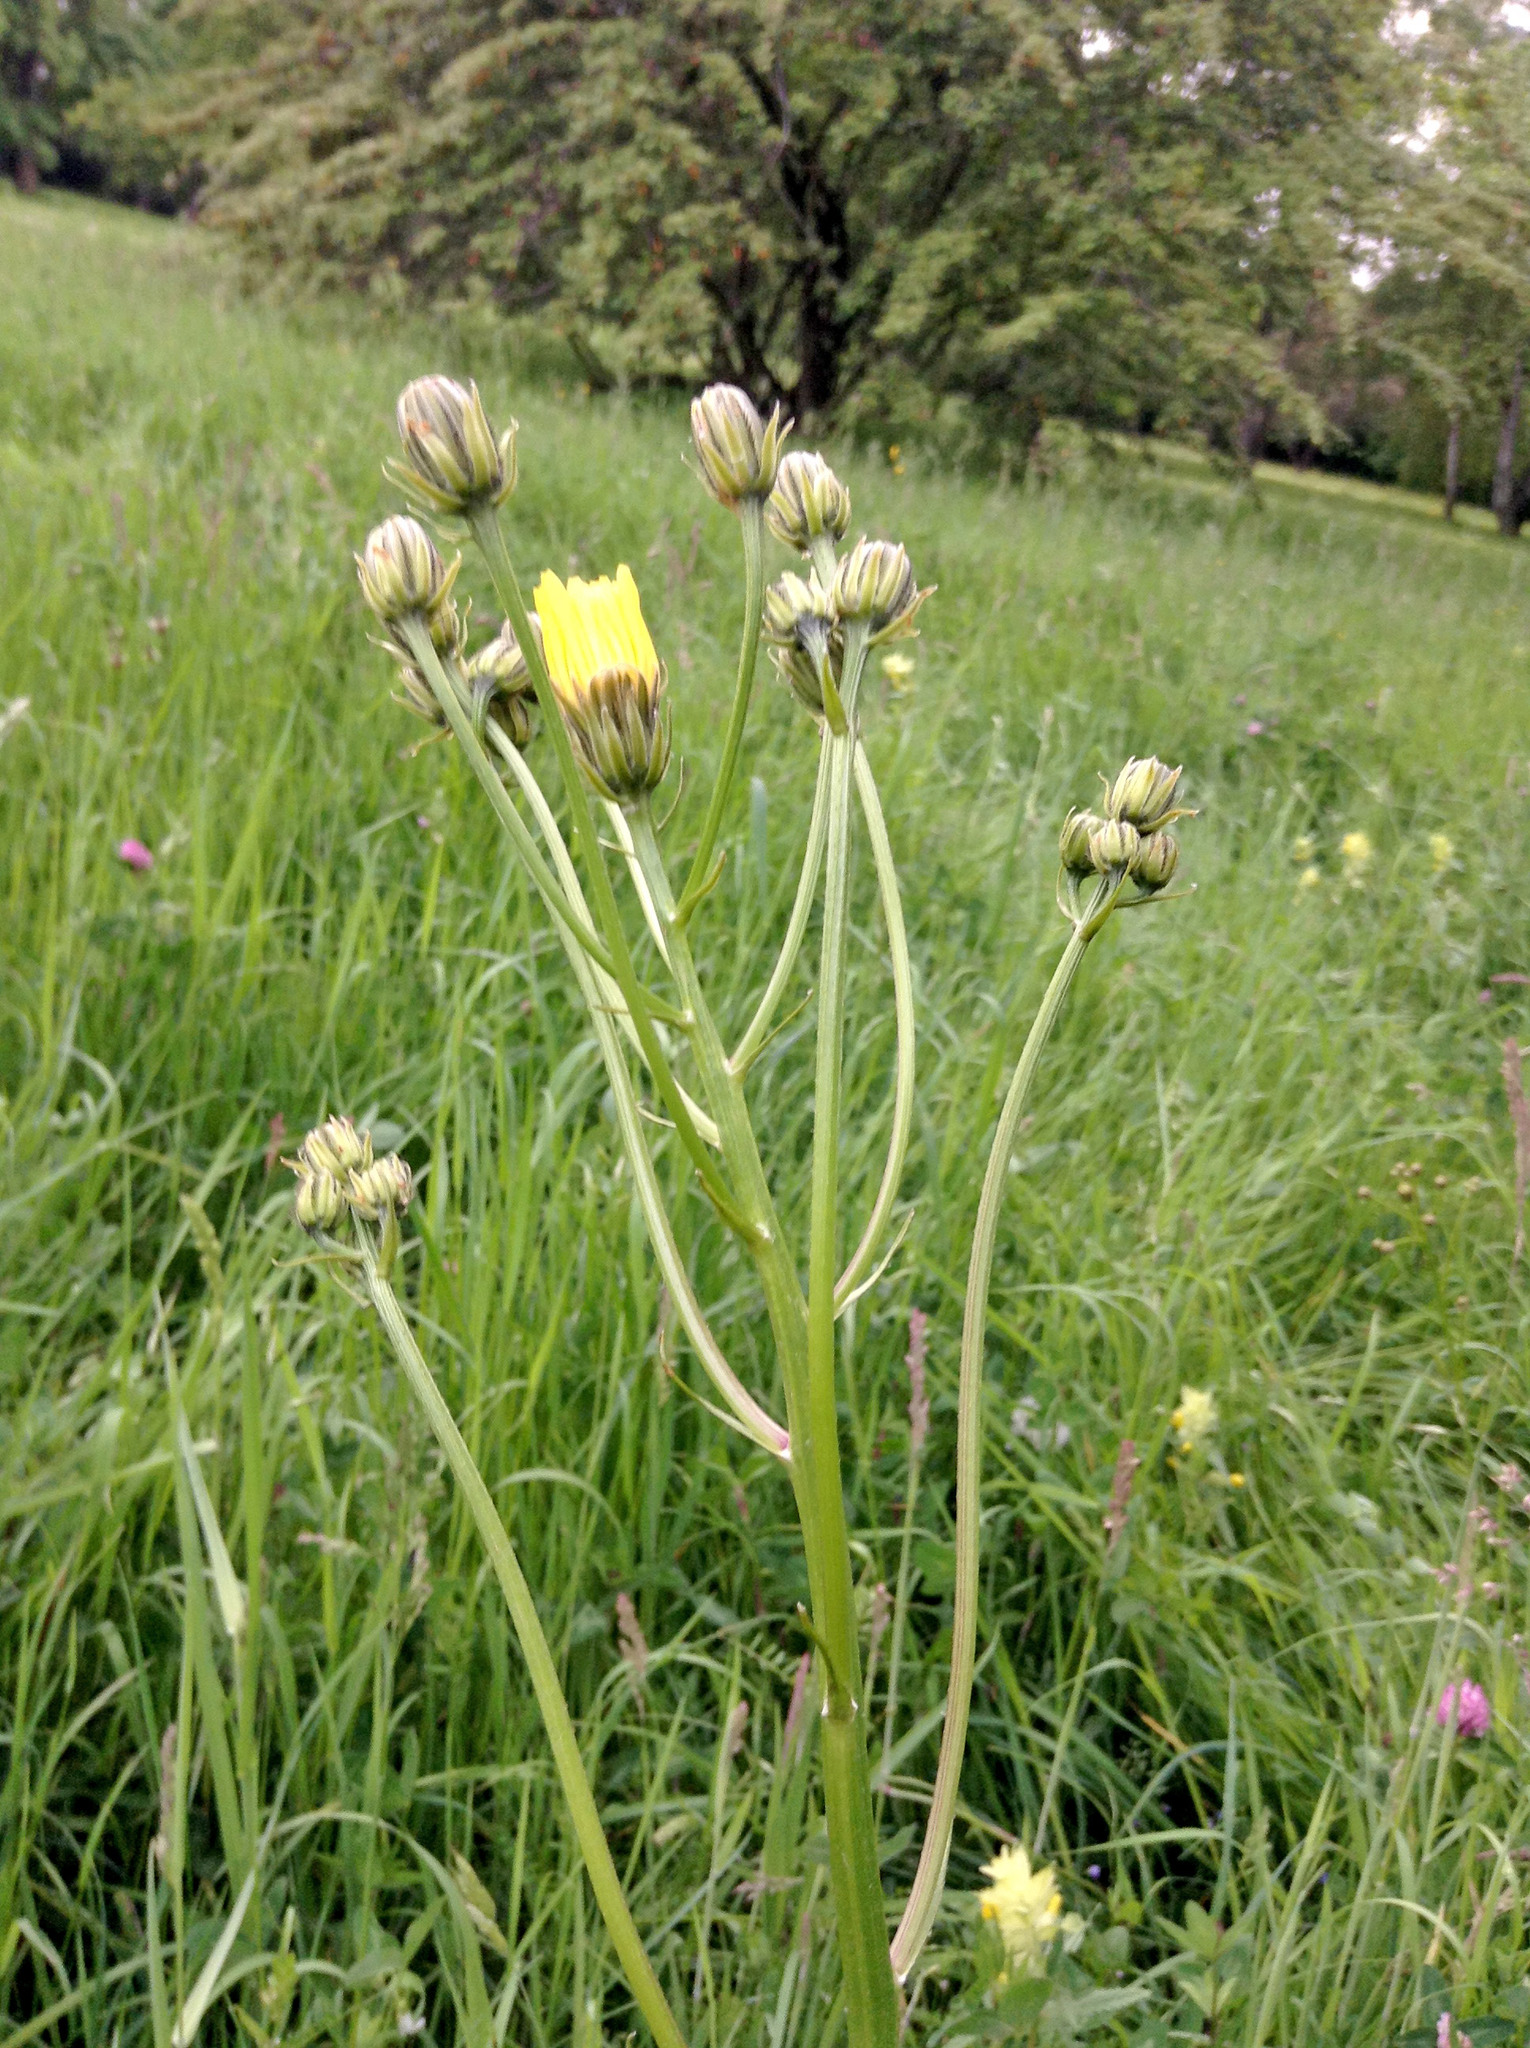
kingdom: Plantae
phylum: Tracheophyta
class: Magnoliopsida
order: Asterales
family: Asteraceae
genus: Crepis
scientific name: Crepis biennis
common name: Rough hawk's-beard
